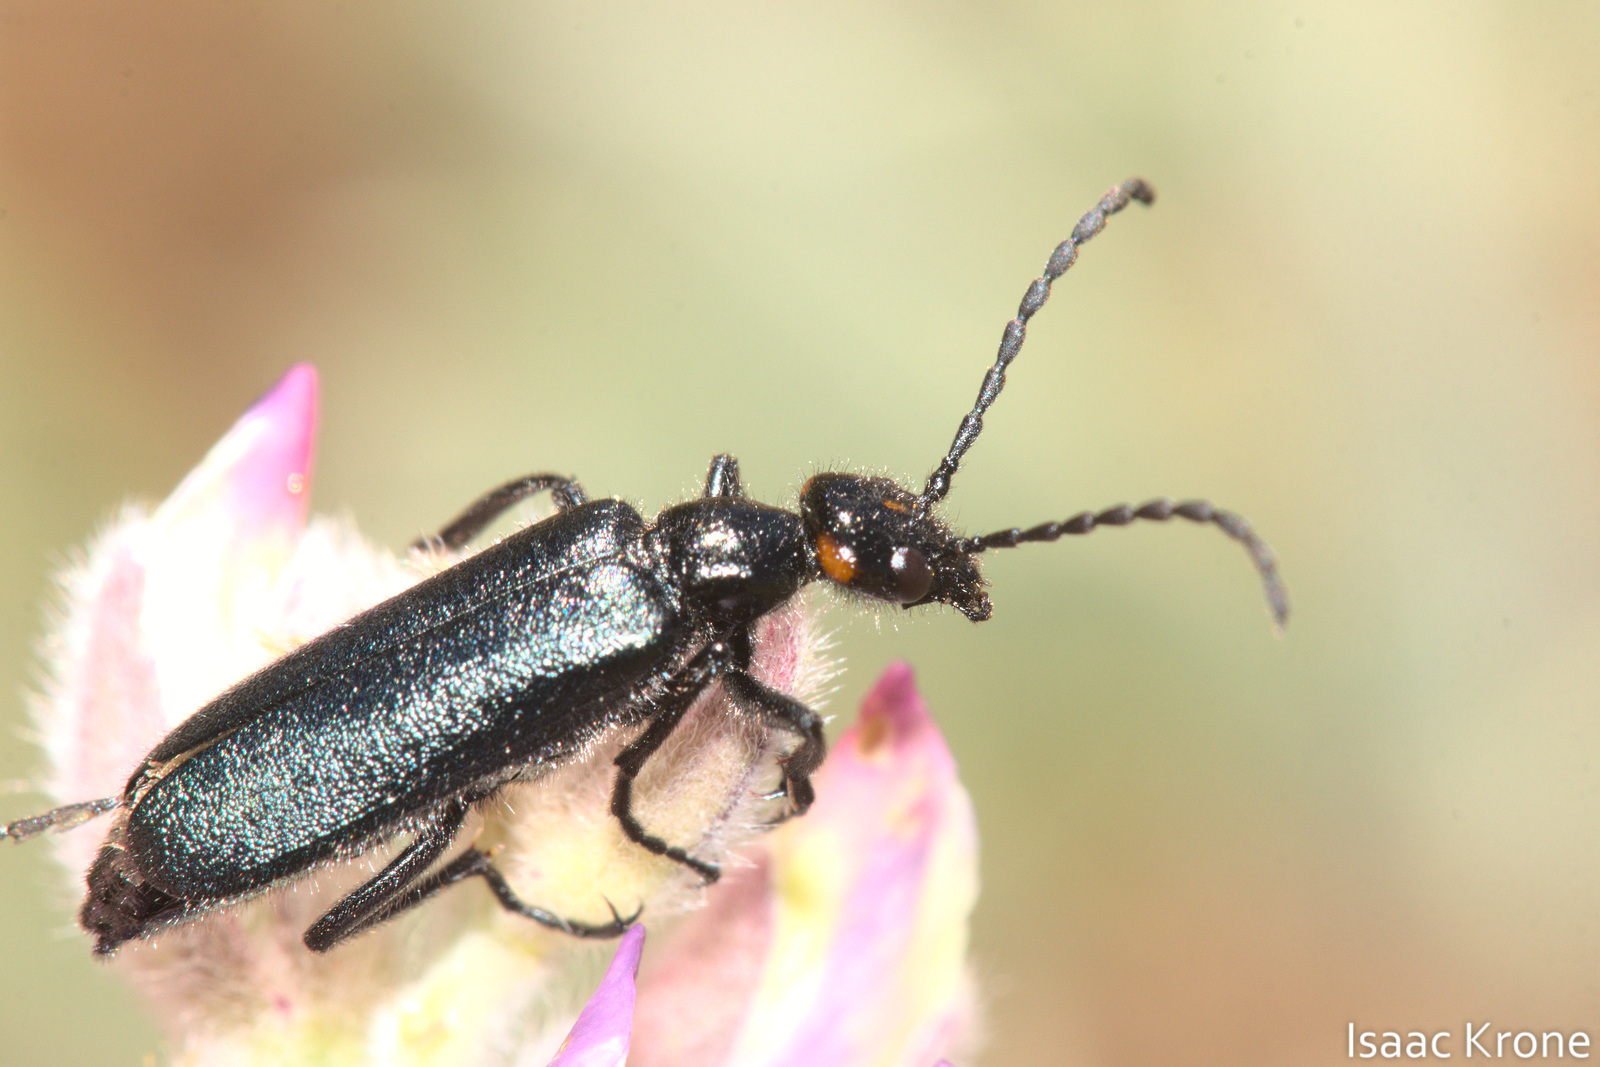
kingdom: Animalia
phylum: Arthropoda
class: Insecta
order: Coleoptera
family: Meloidae
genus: Lytta
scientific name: Lytta auriculata
